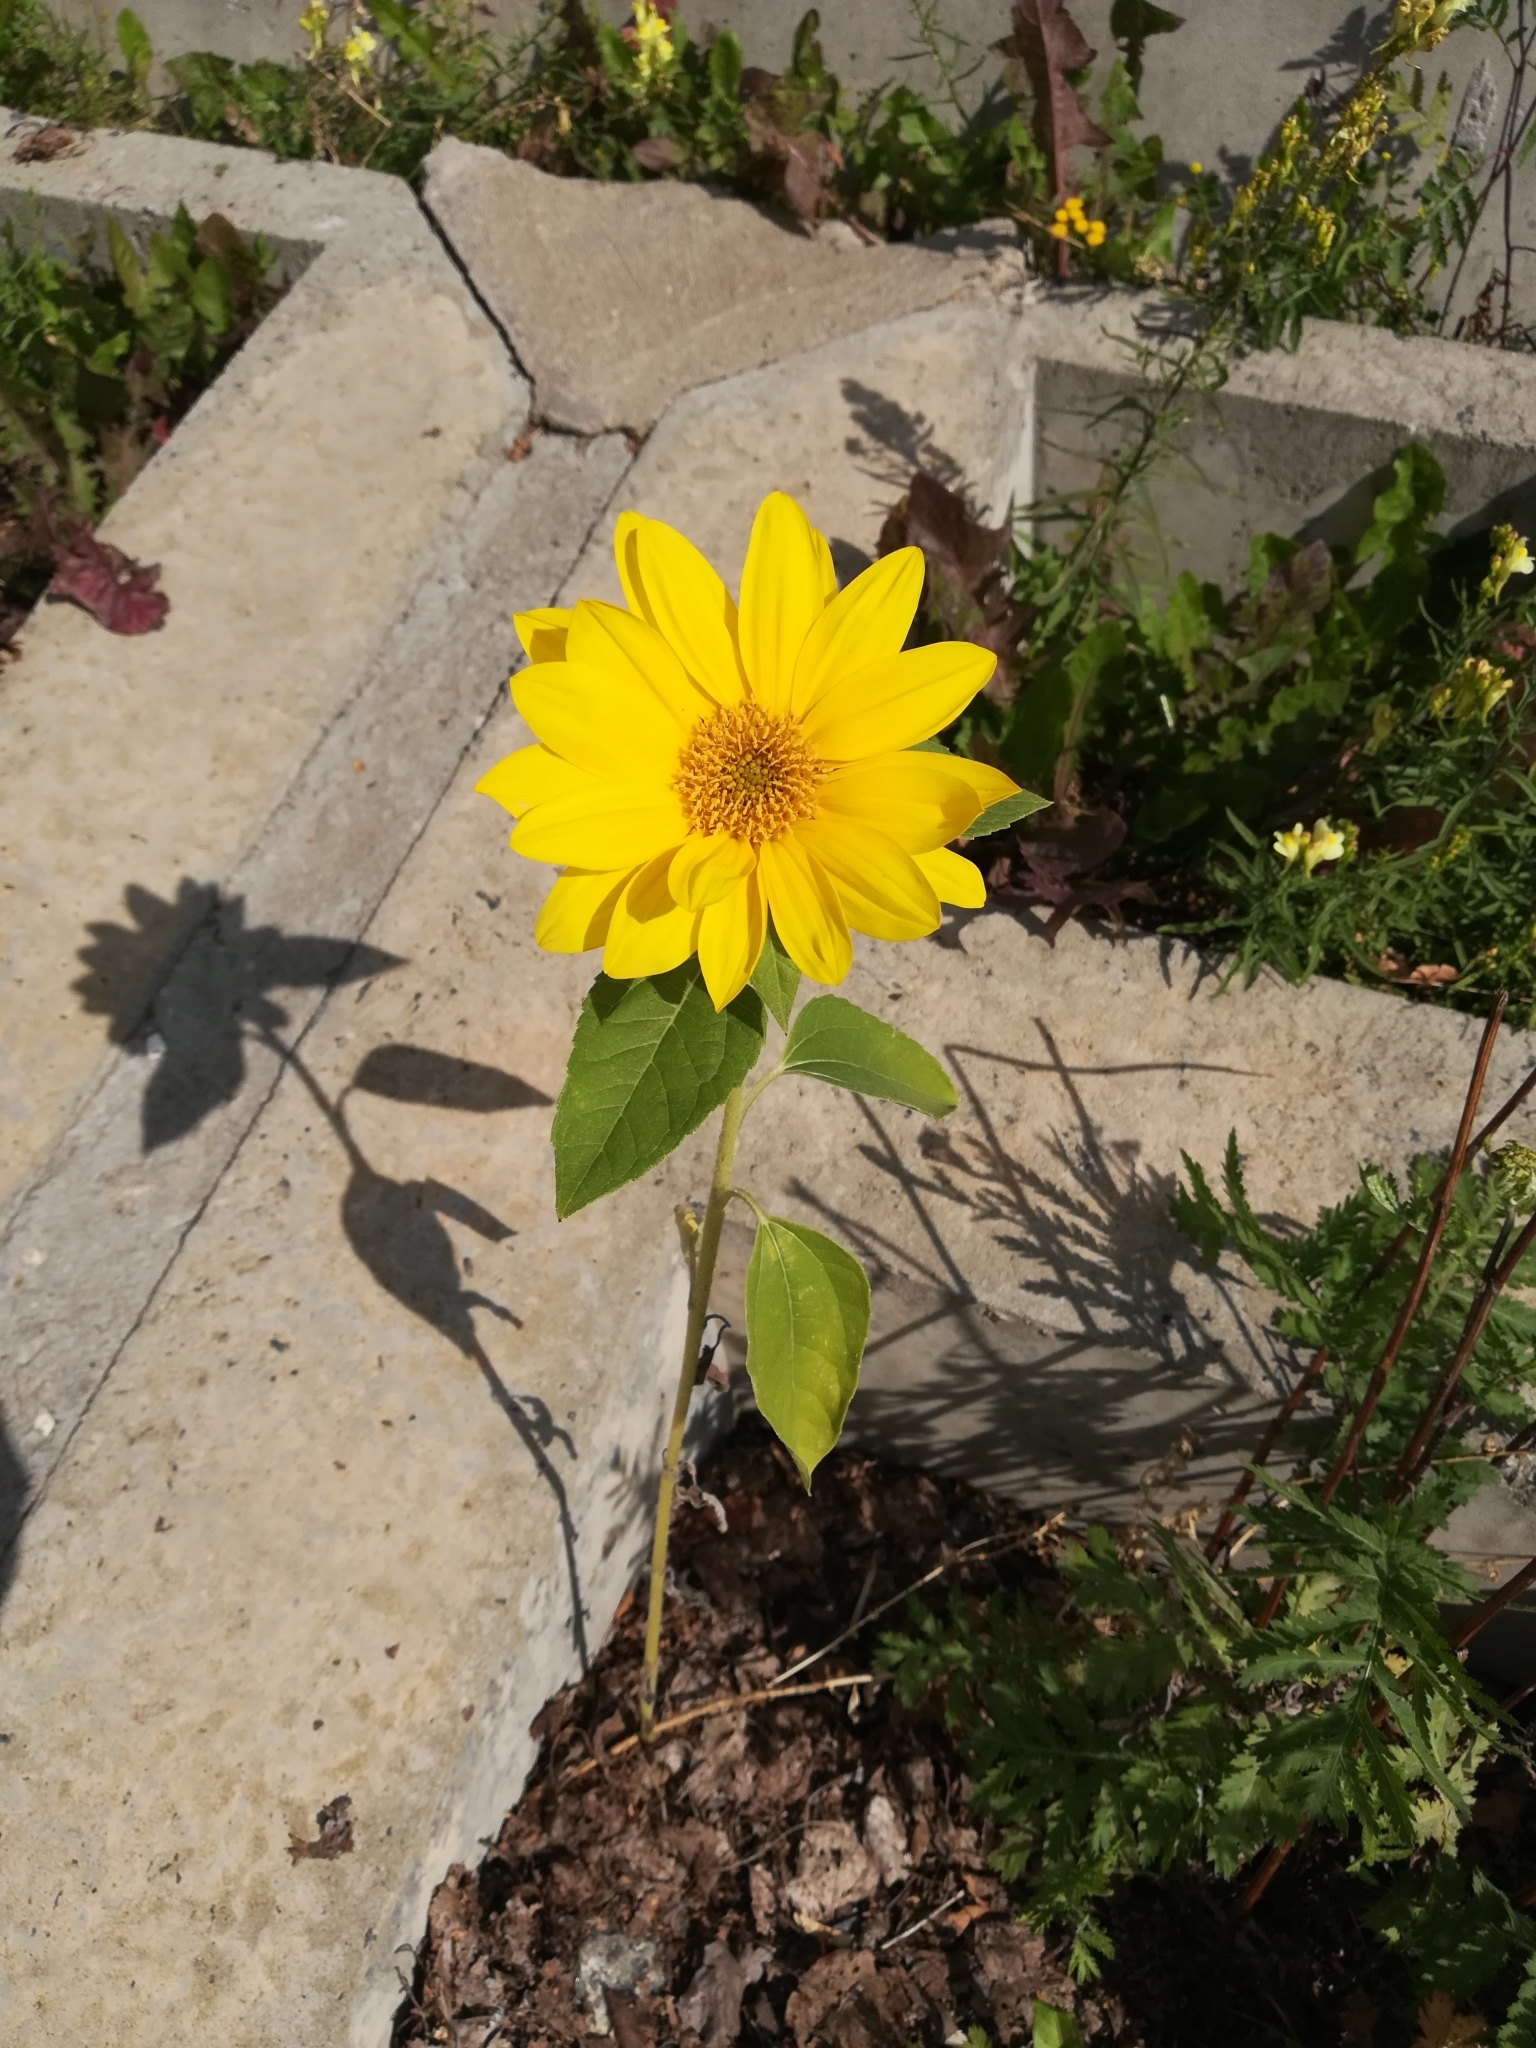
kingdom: Plantae
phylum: Tracheophyta
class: Magnoliopsida
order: Asterales
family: Asteraceae
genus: Helianthus
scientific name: Helianthus annuus
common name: Sunflower
